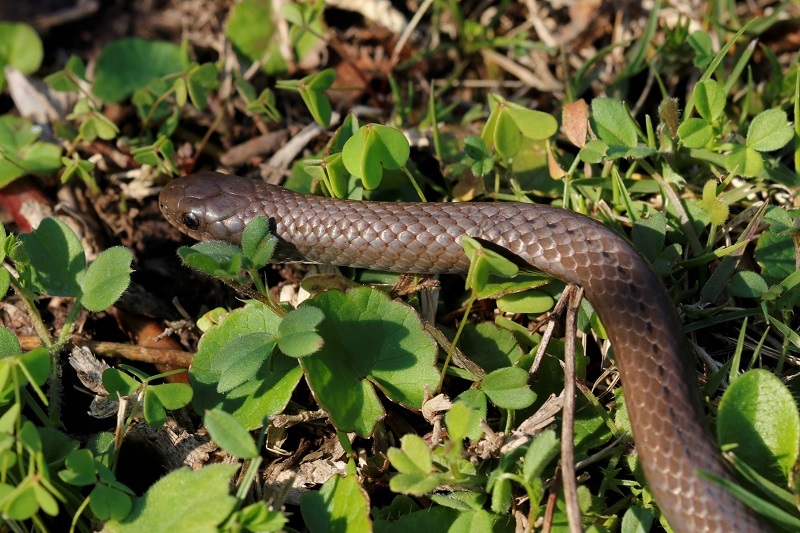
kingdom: Animalia
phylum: Chordata
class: Squamata
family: Pseudoxyrhophiidae
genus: Duberria
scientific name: Duberria lutrix
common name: Common slug eater
